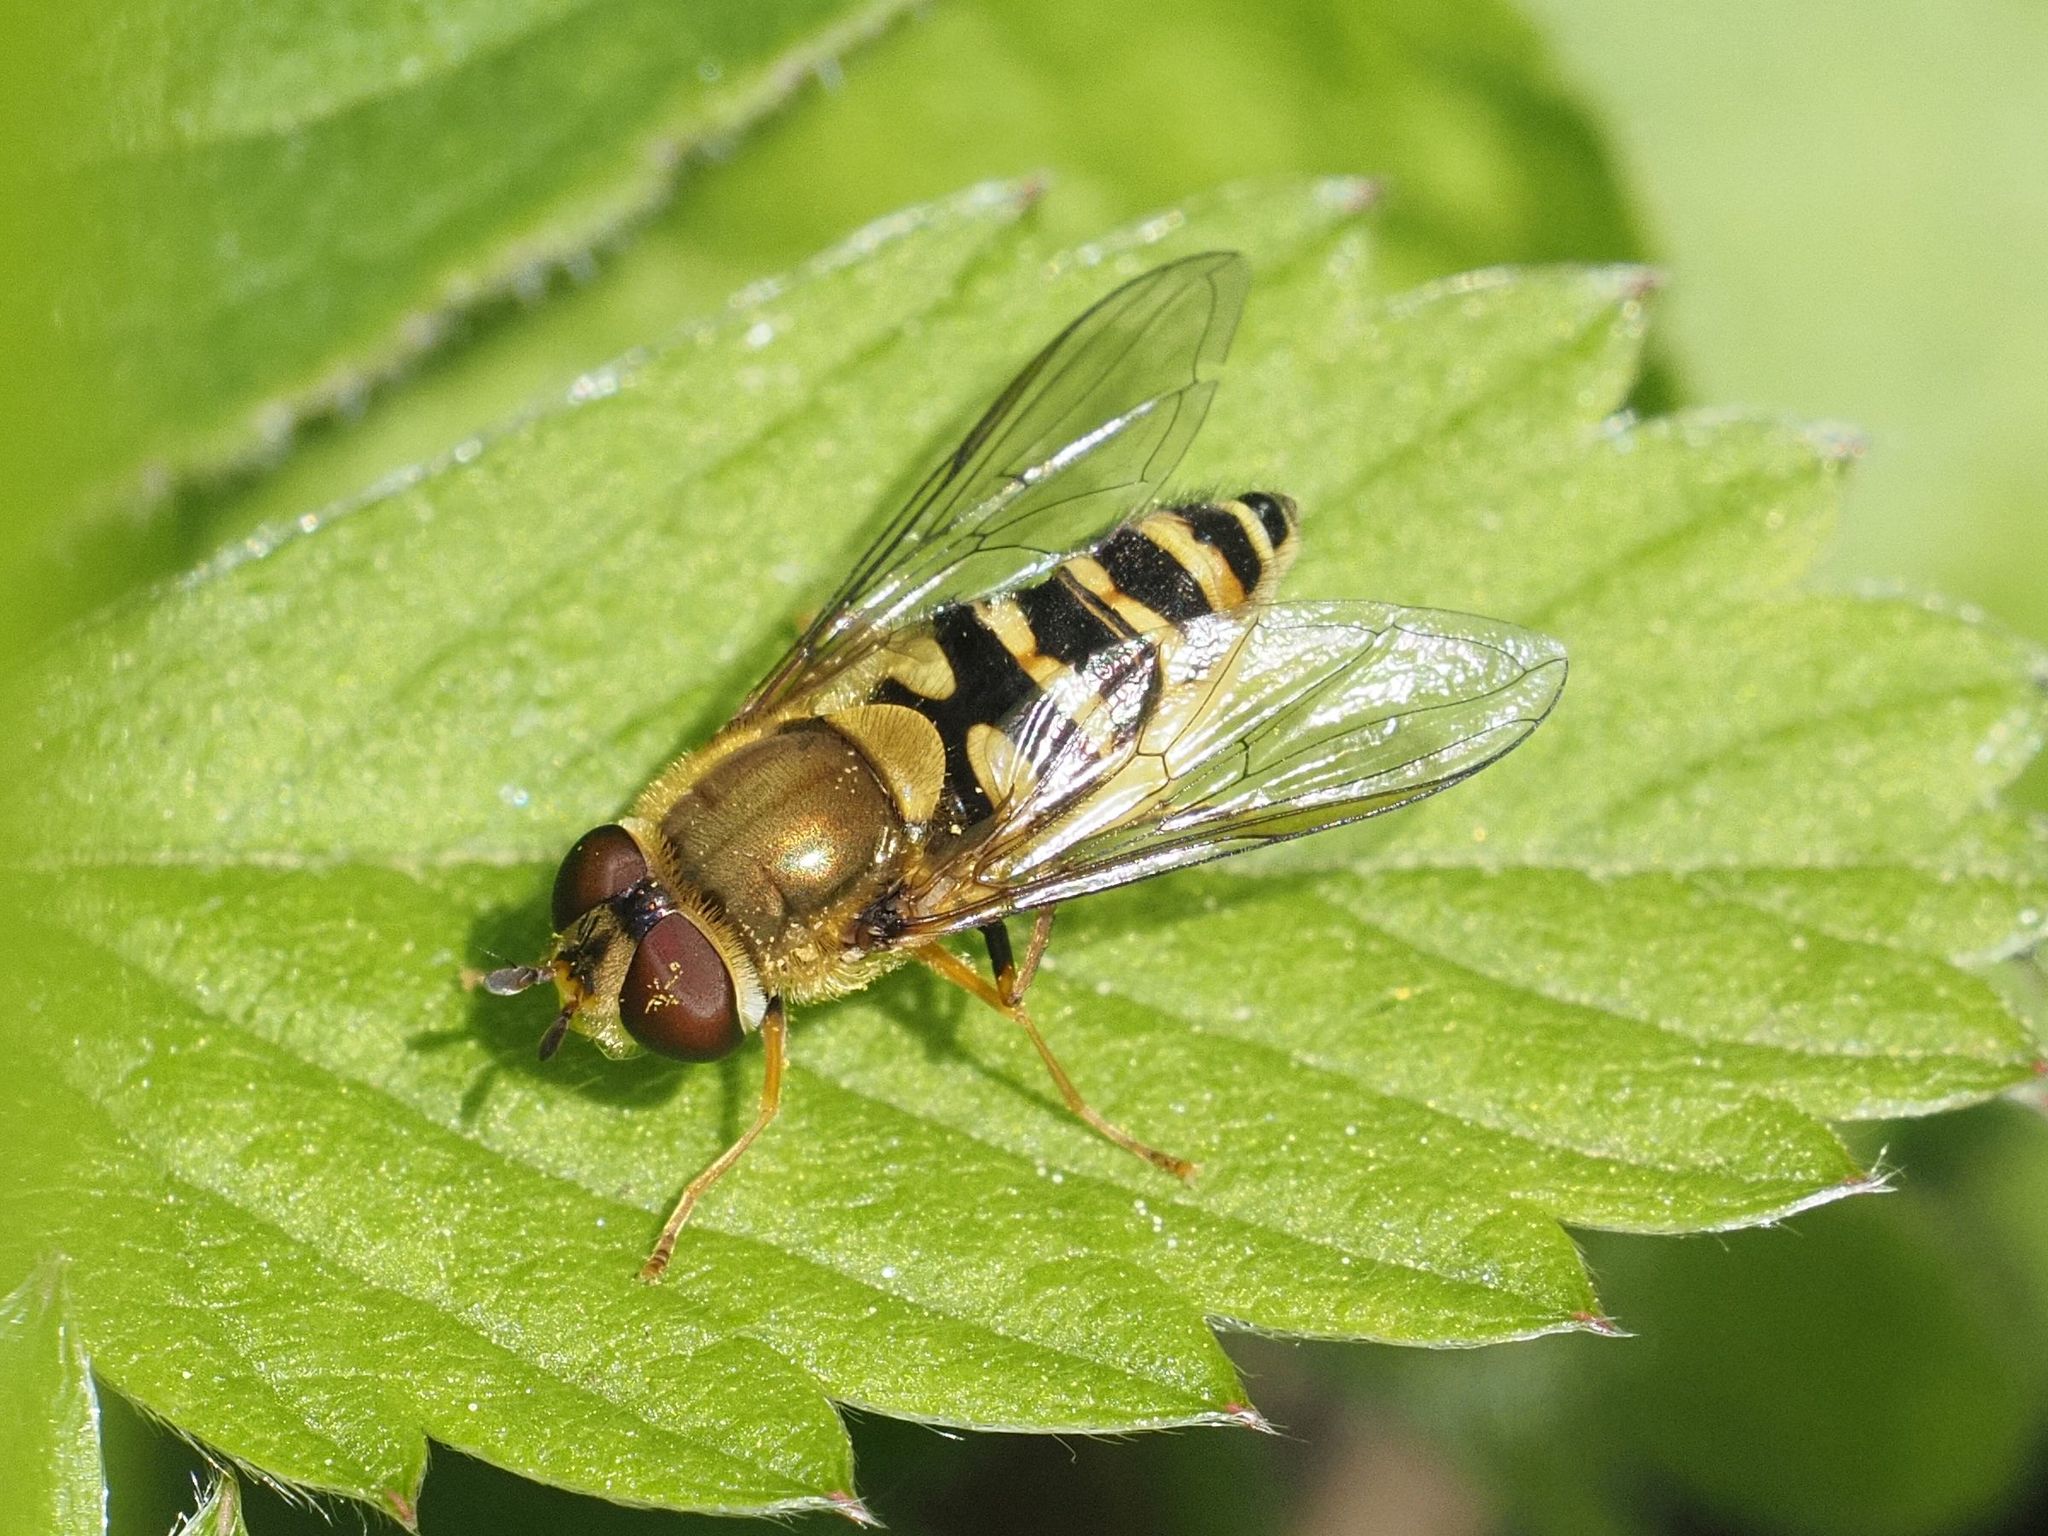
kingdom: Animalia
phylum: Arthropoda
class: Insecta
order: Diptera
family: Syrphidae
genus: Syrphus
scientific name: Syrphus
